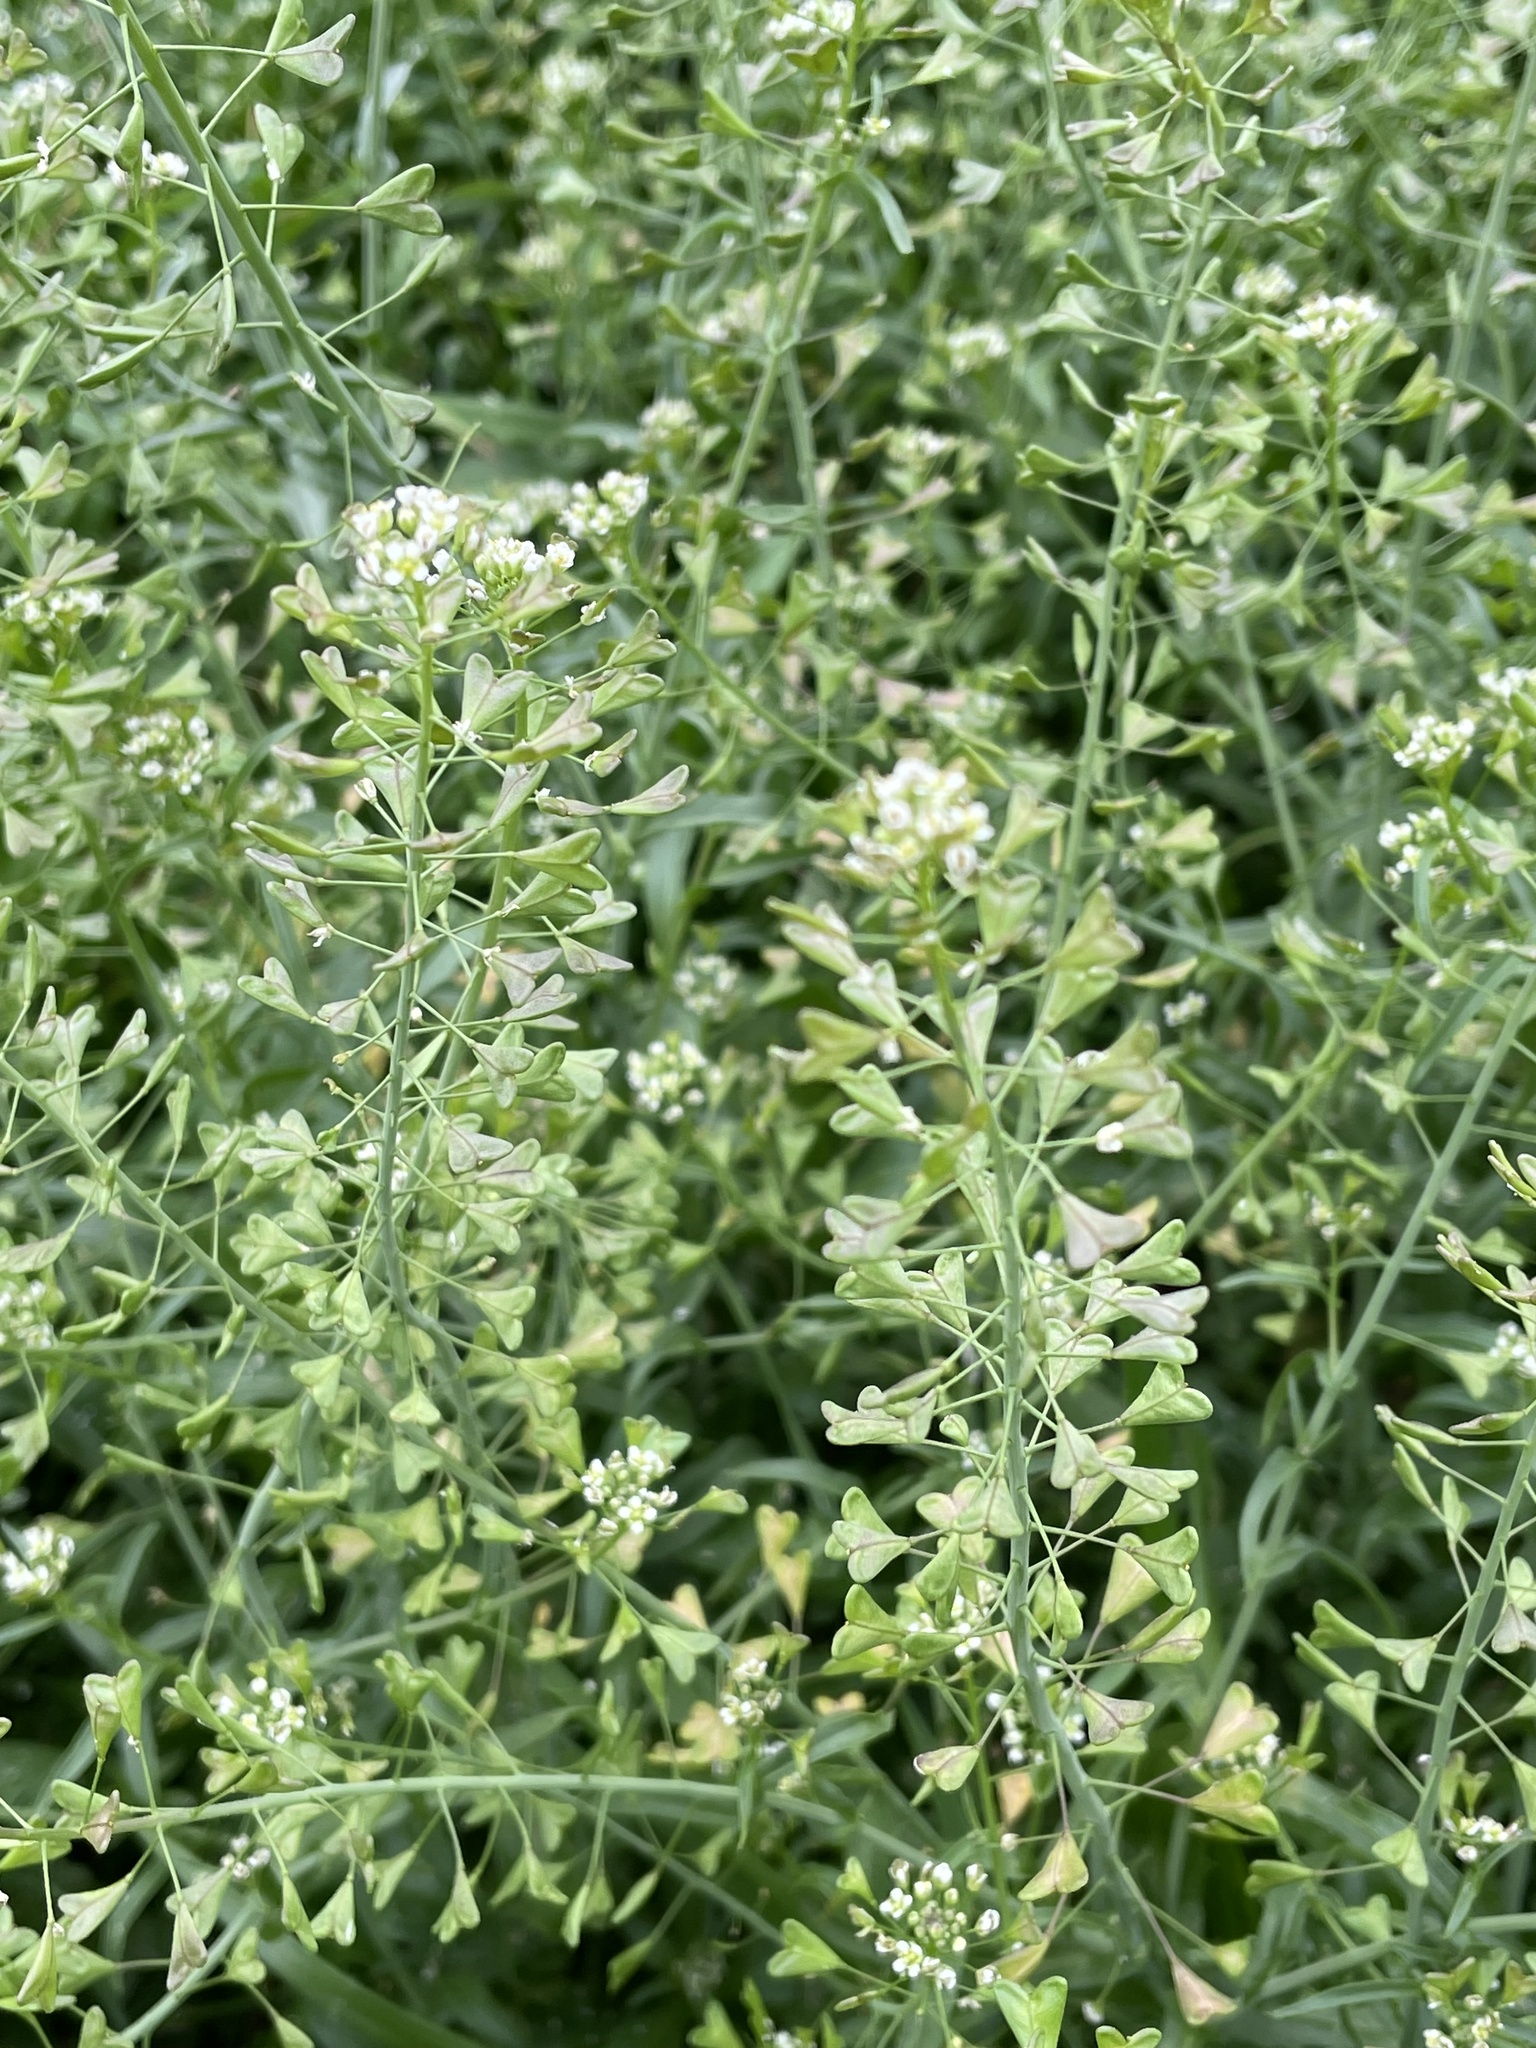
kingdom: Plantae
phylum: Tracheophyta
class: Magnoliopsida
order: Brassicales
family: Brassicaceae
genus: Capsella
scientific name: Capsella bursa-pastoris
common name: Shepherd's purse
